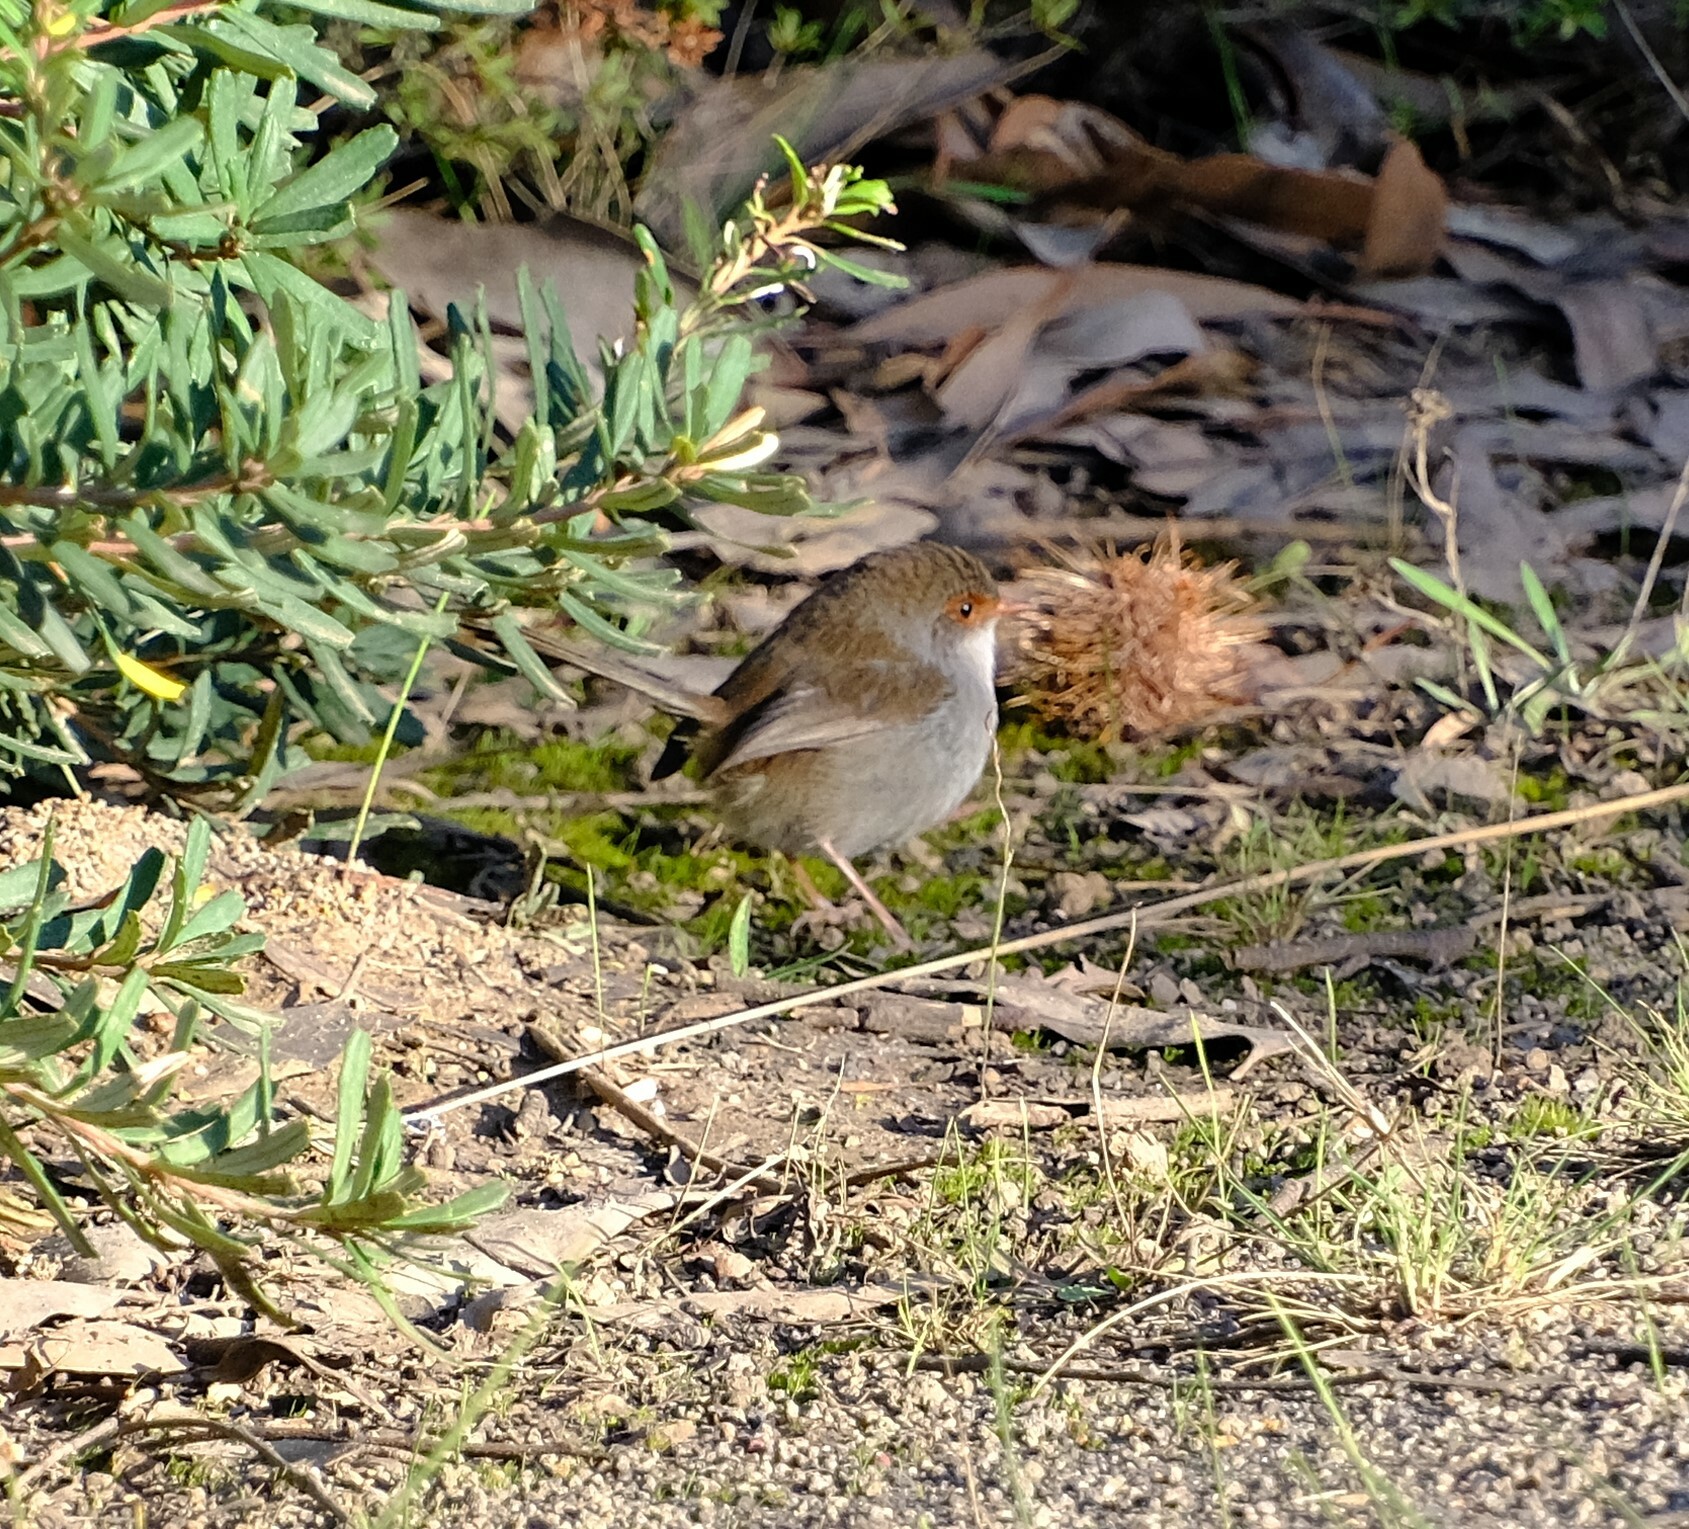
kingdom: Animalia
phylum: Chordata
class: Aves
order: Passeriformes
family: Maluridae
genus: Malurus
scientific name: Malurus cyaneus
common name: Superb fairywren
